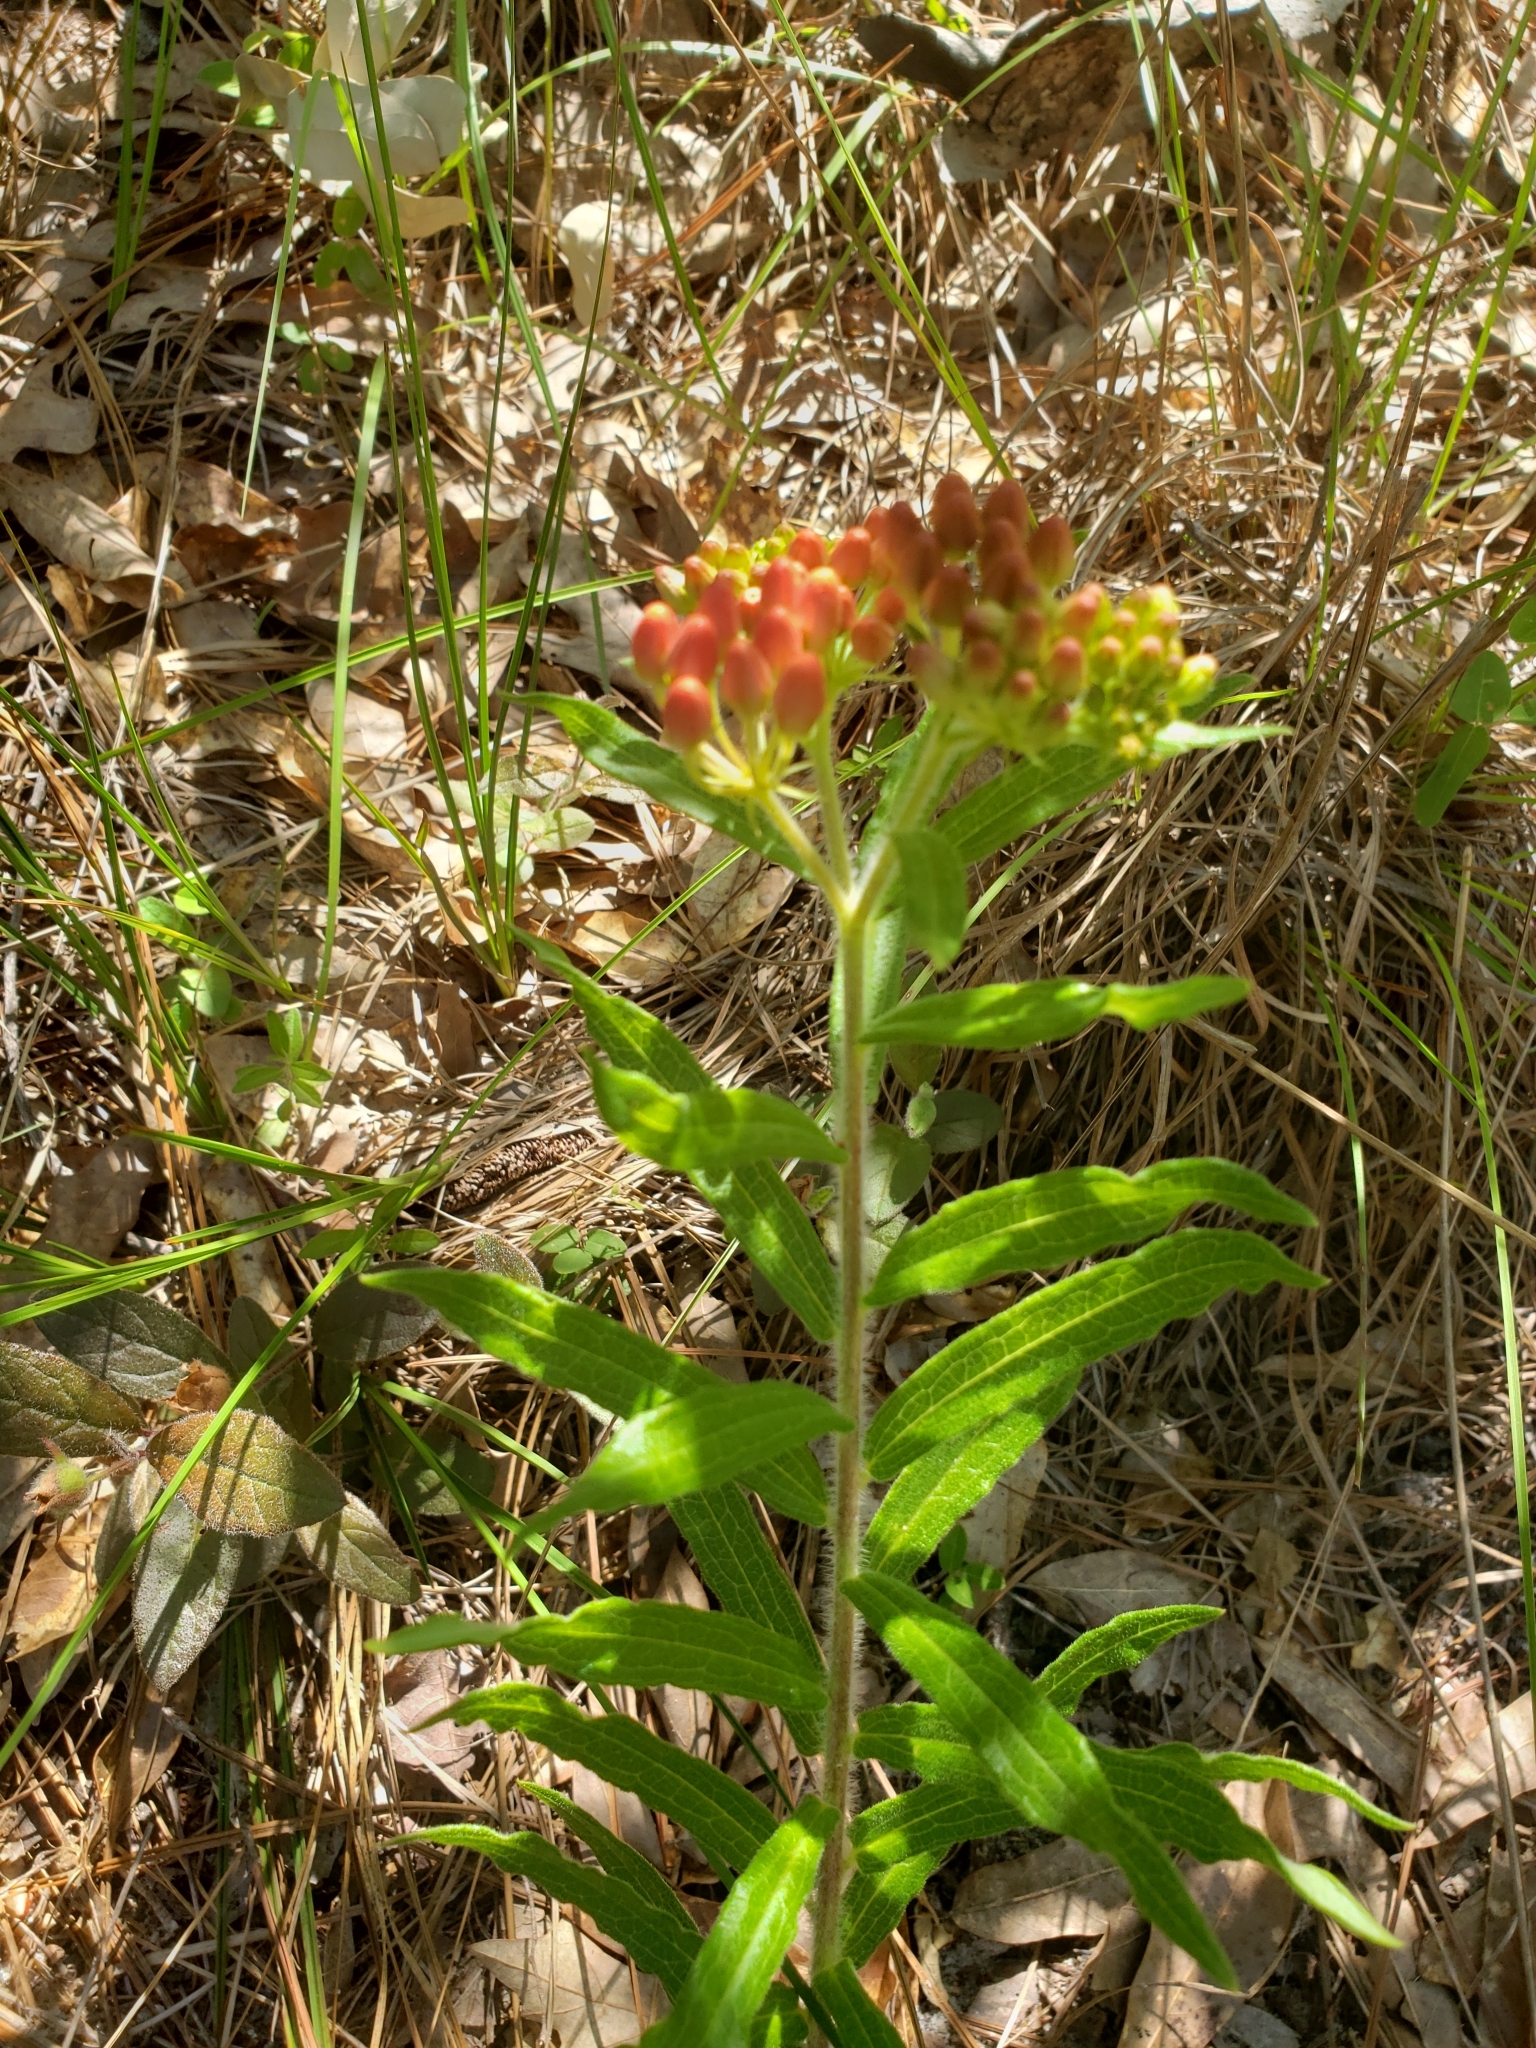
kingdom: Plantae
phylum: Tracheophyta
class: Magnoliopsida
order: Gentianales
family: Apocynaceae
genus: Asclepias
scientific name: Asclepias tuberosa
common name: Butterfly milkweed
